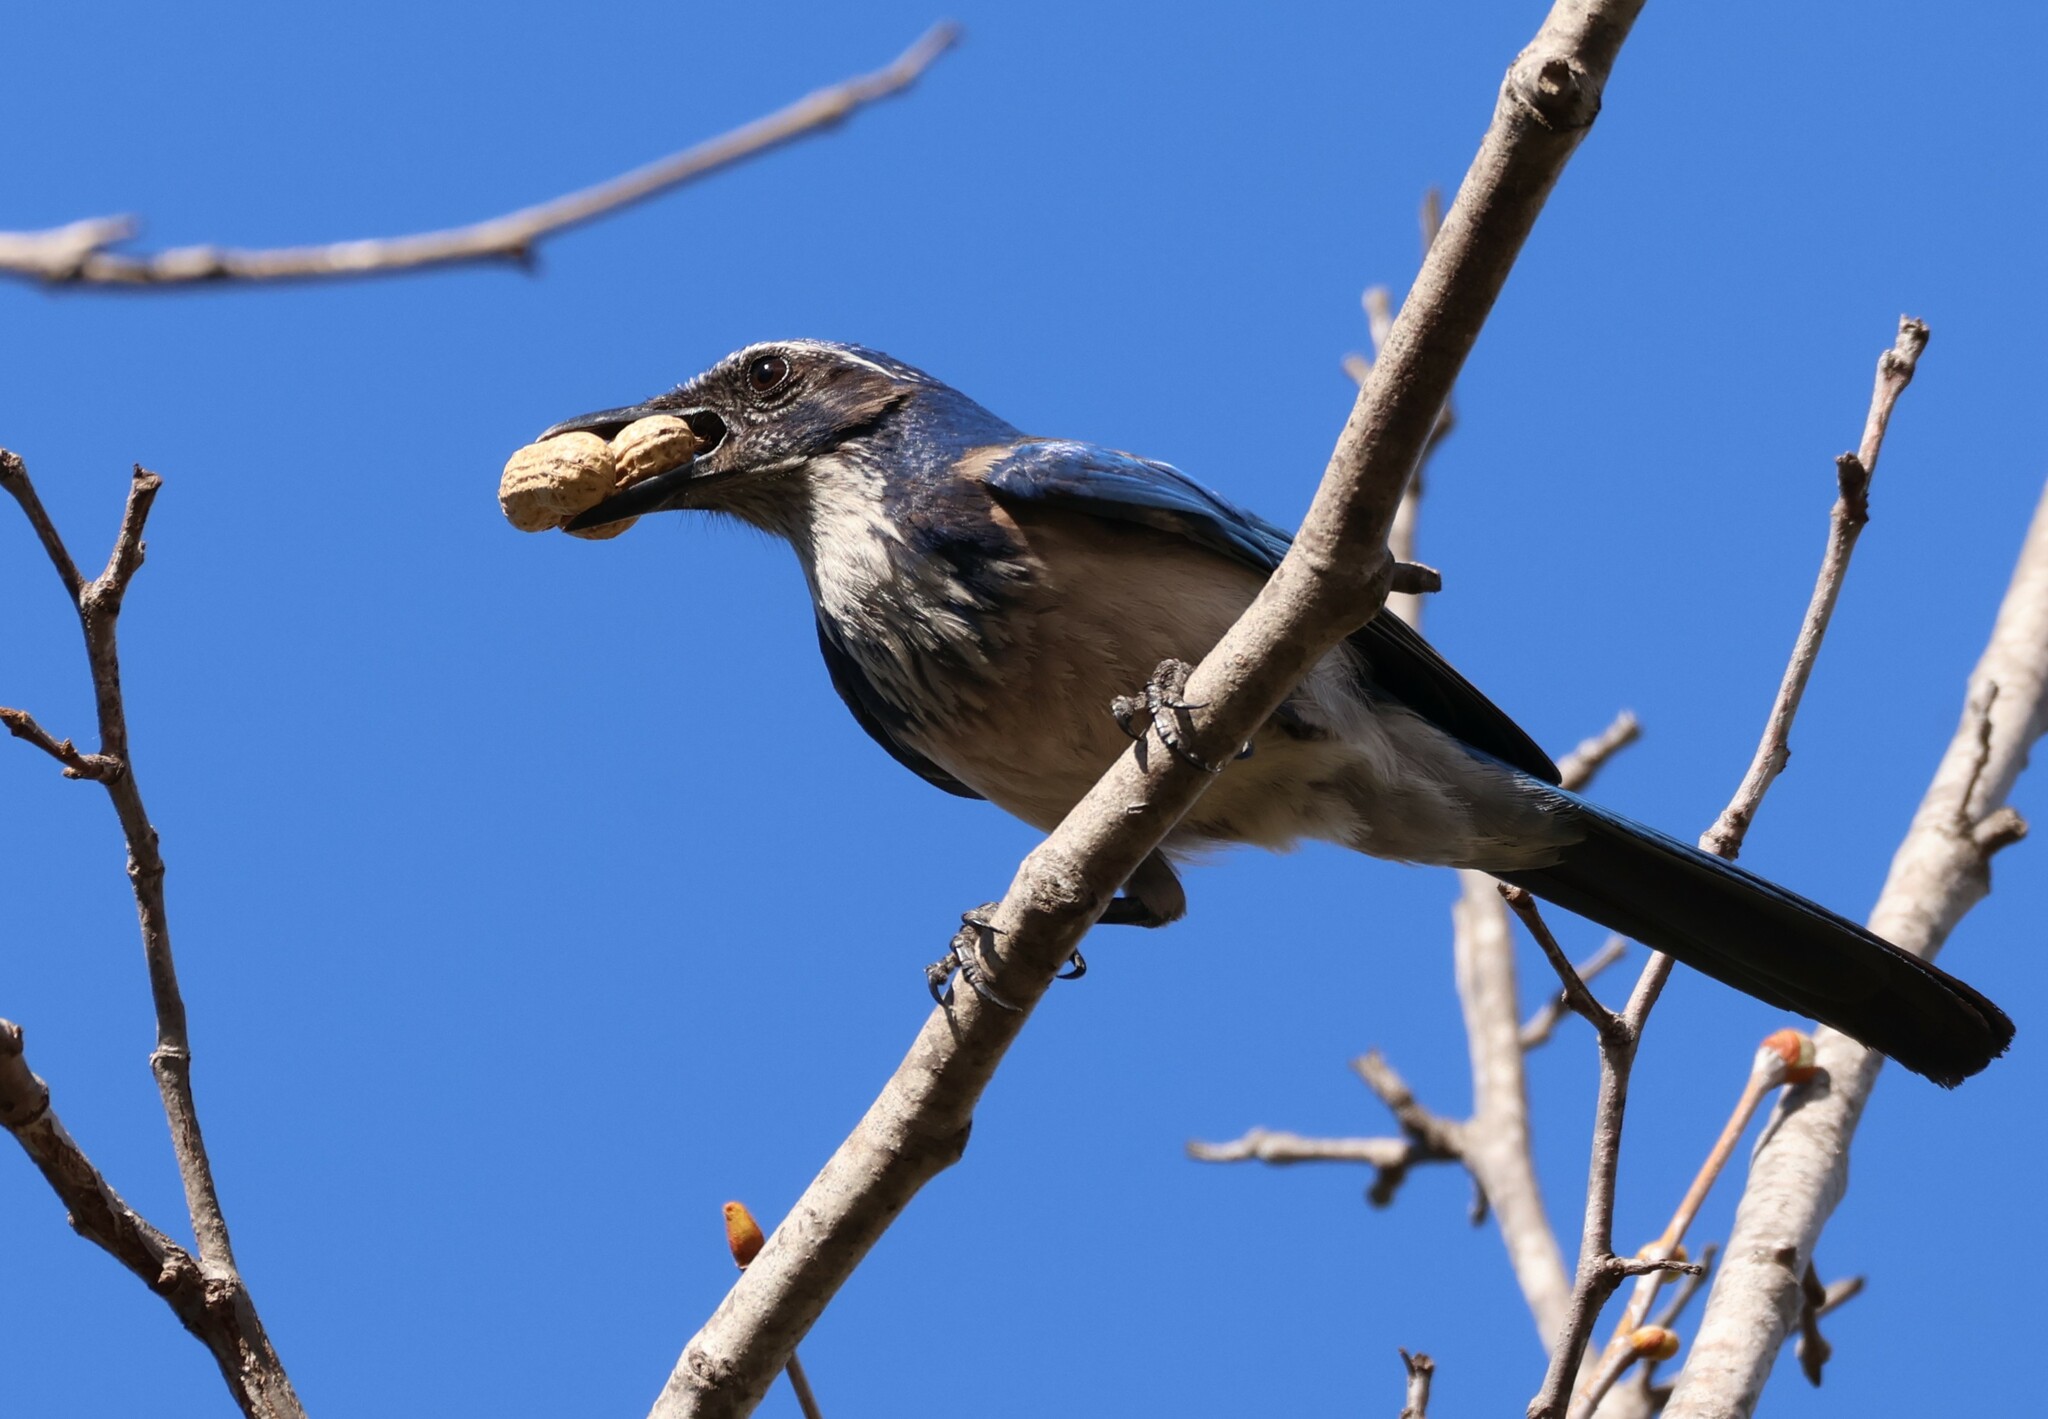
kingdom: Animalia
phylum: Chordata
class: Aves
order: Passeriformes
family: Corvidae
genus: Aphelocoma
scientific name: Aphelocoma californica
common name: California scrub-jay
